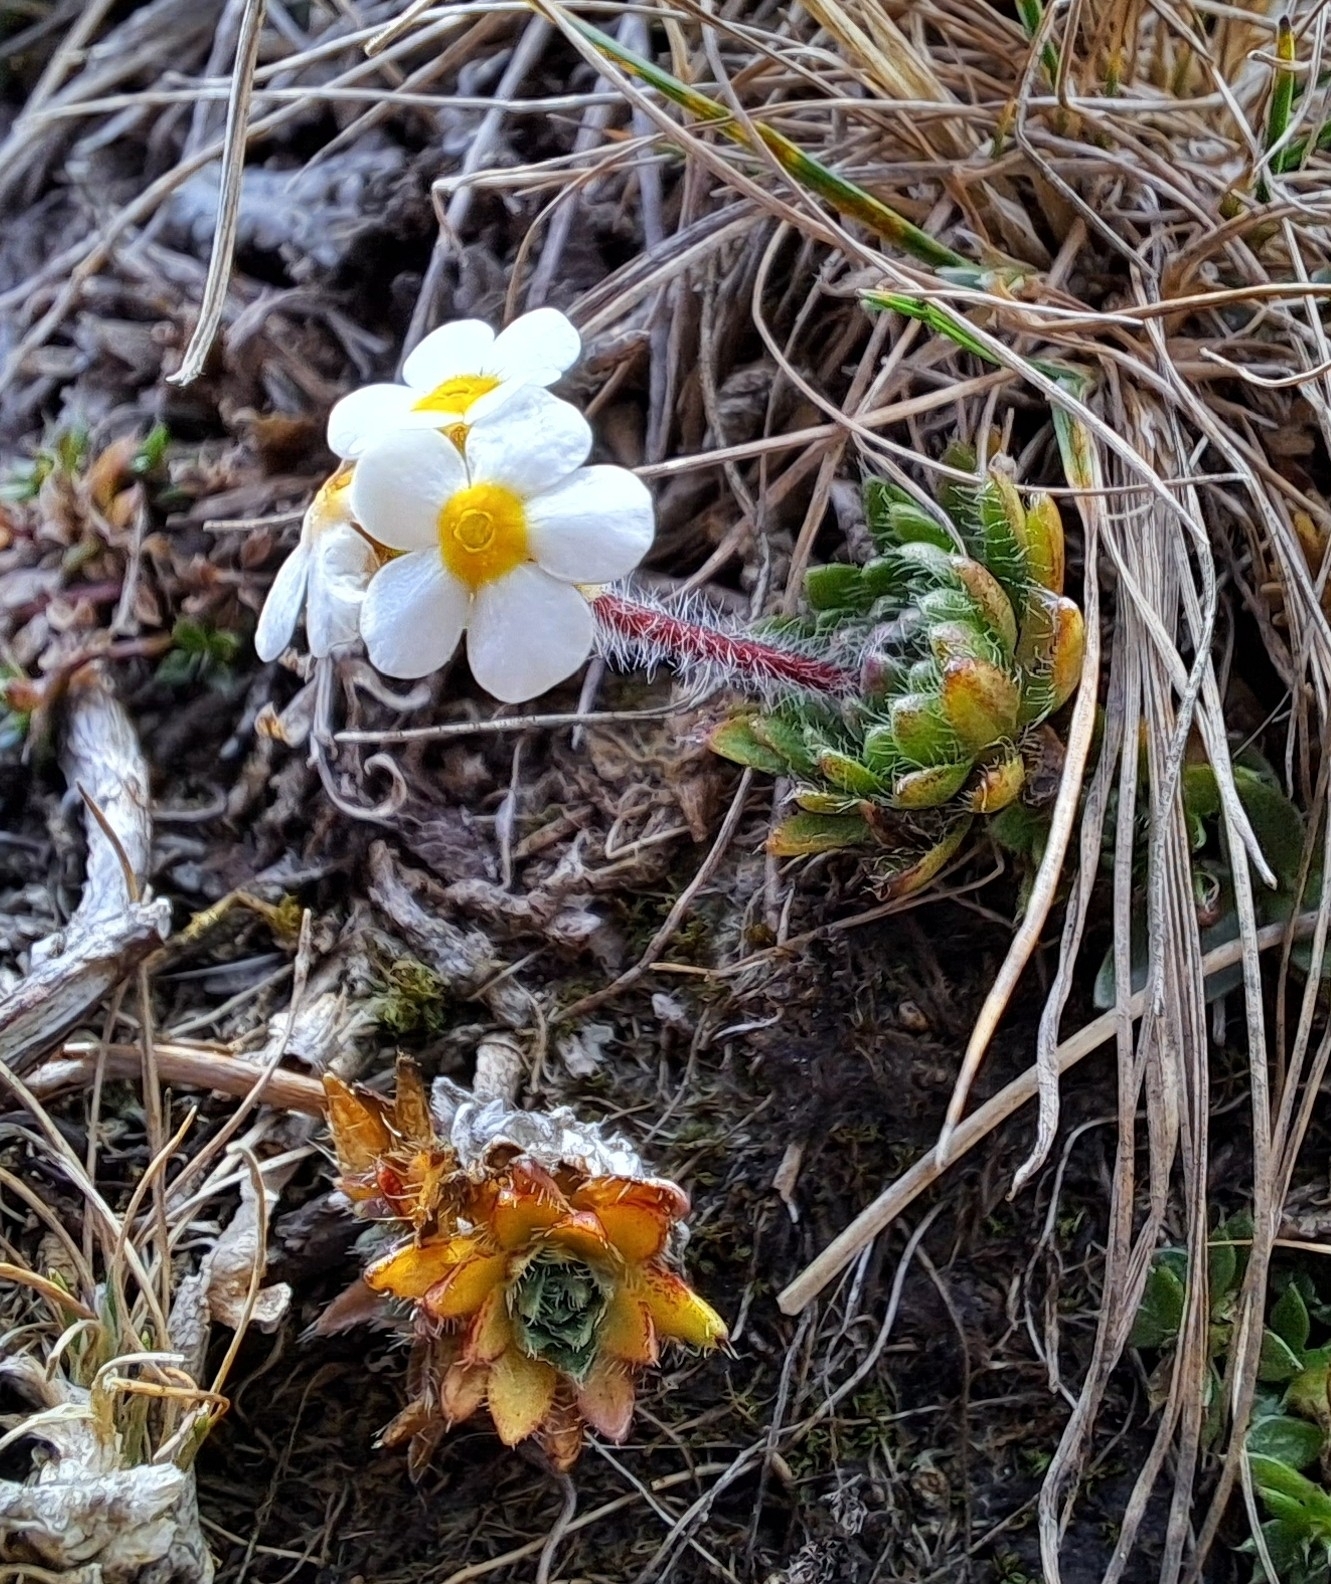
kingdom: Plantae
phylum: Tracheophyta
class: Magnoliopsida
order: Ericales
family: Primulaceae
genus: Androsace
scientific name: Androsace chamaejasme
